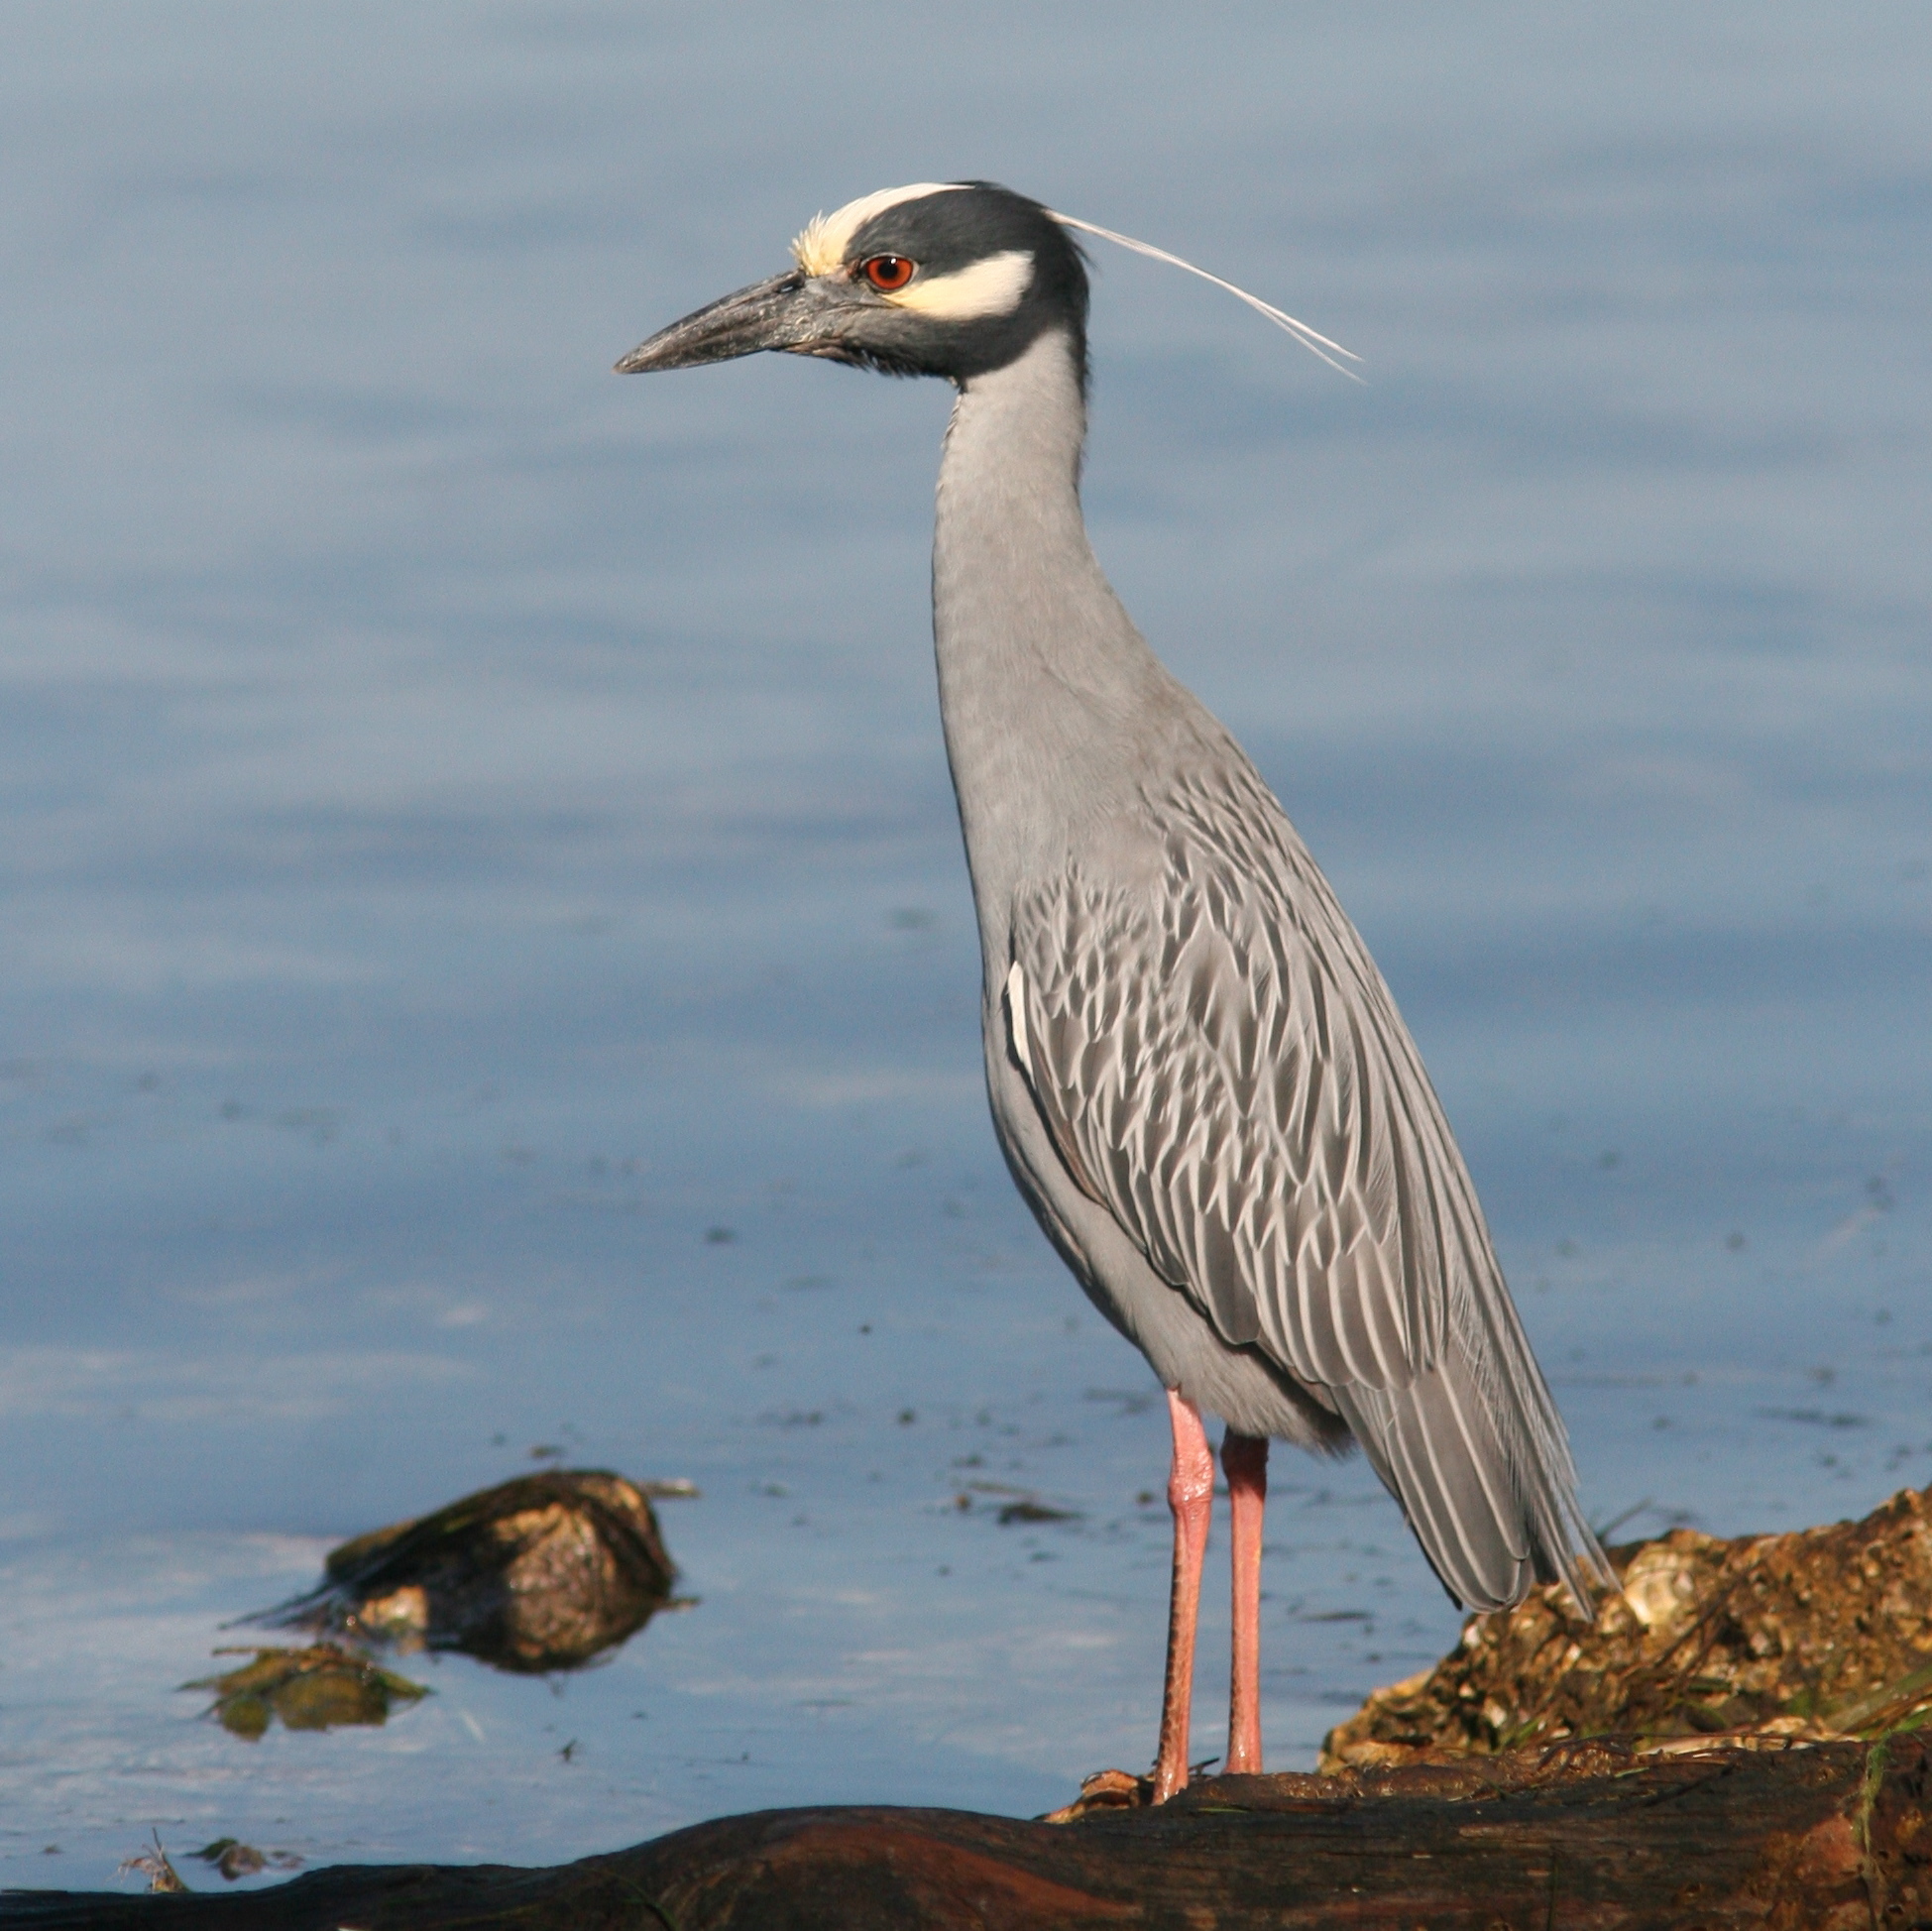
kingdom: Animalia
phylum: Chordata
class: Aves
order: Pelecaniformes
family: Ardeidae
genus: Nyctanassa
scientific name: Nyctanassa violacea
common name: Yellow-crowned night heron
